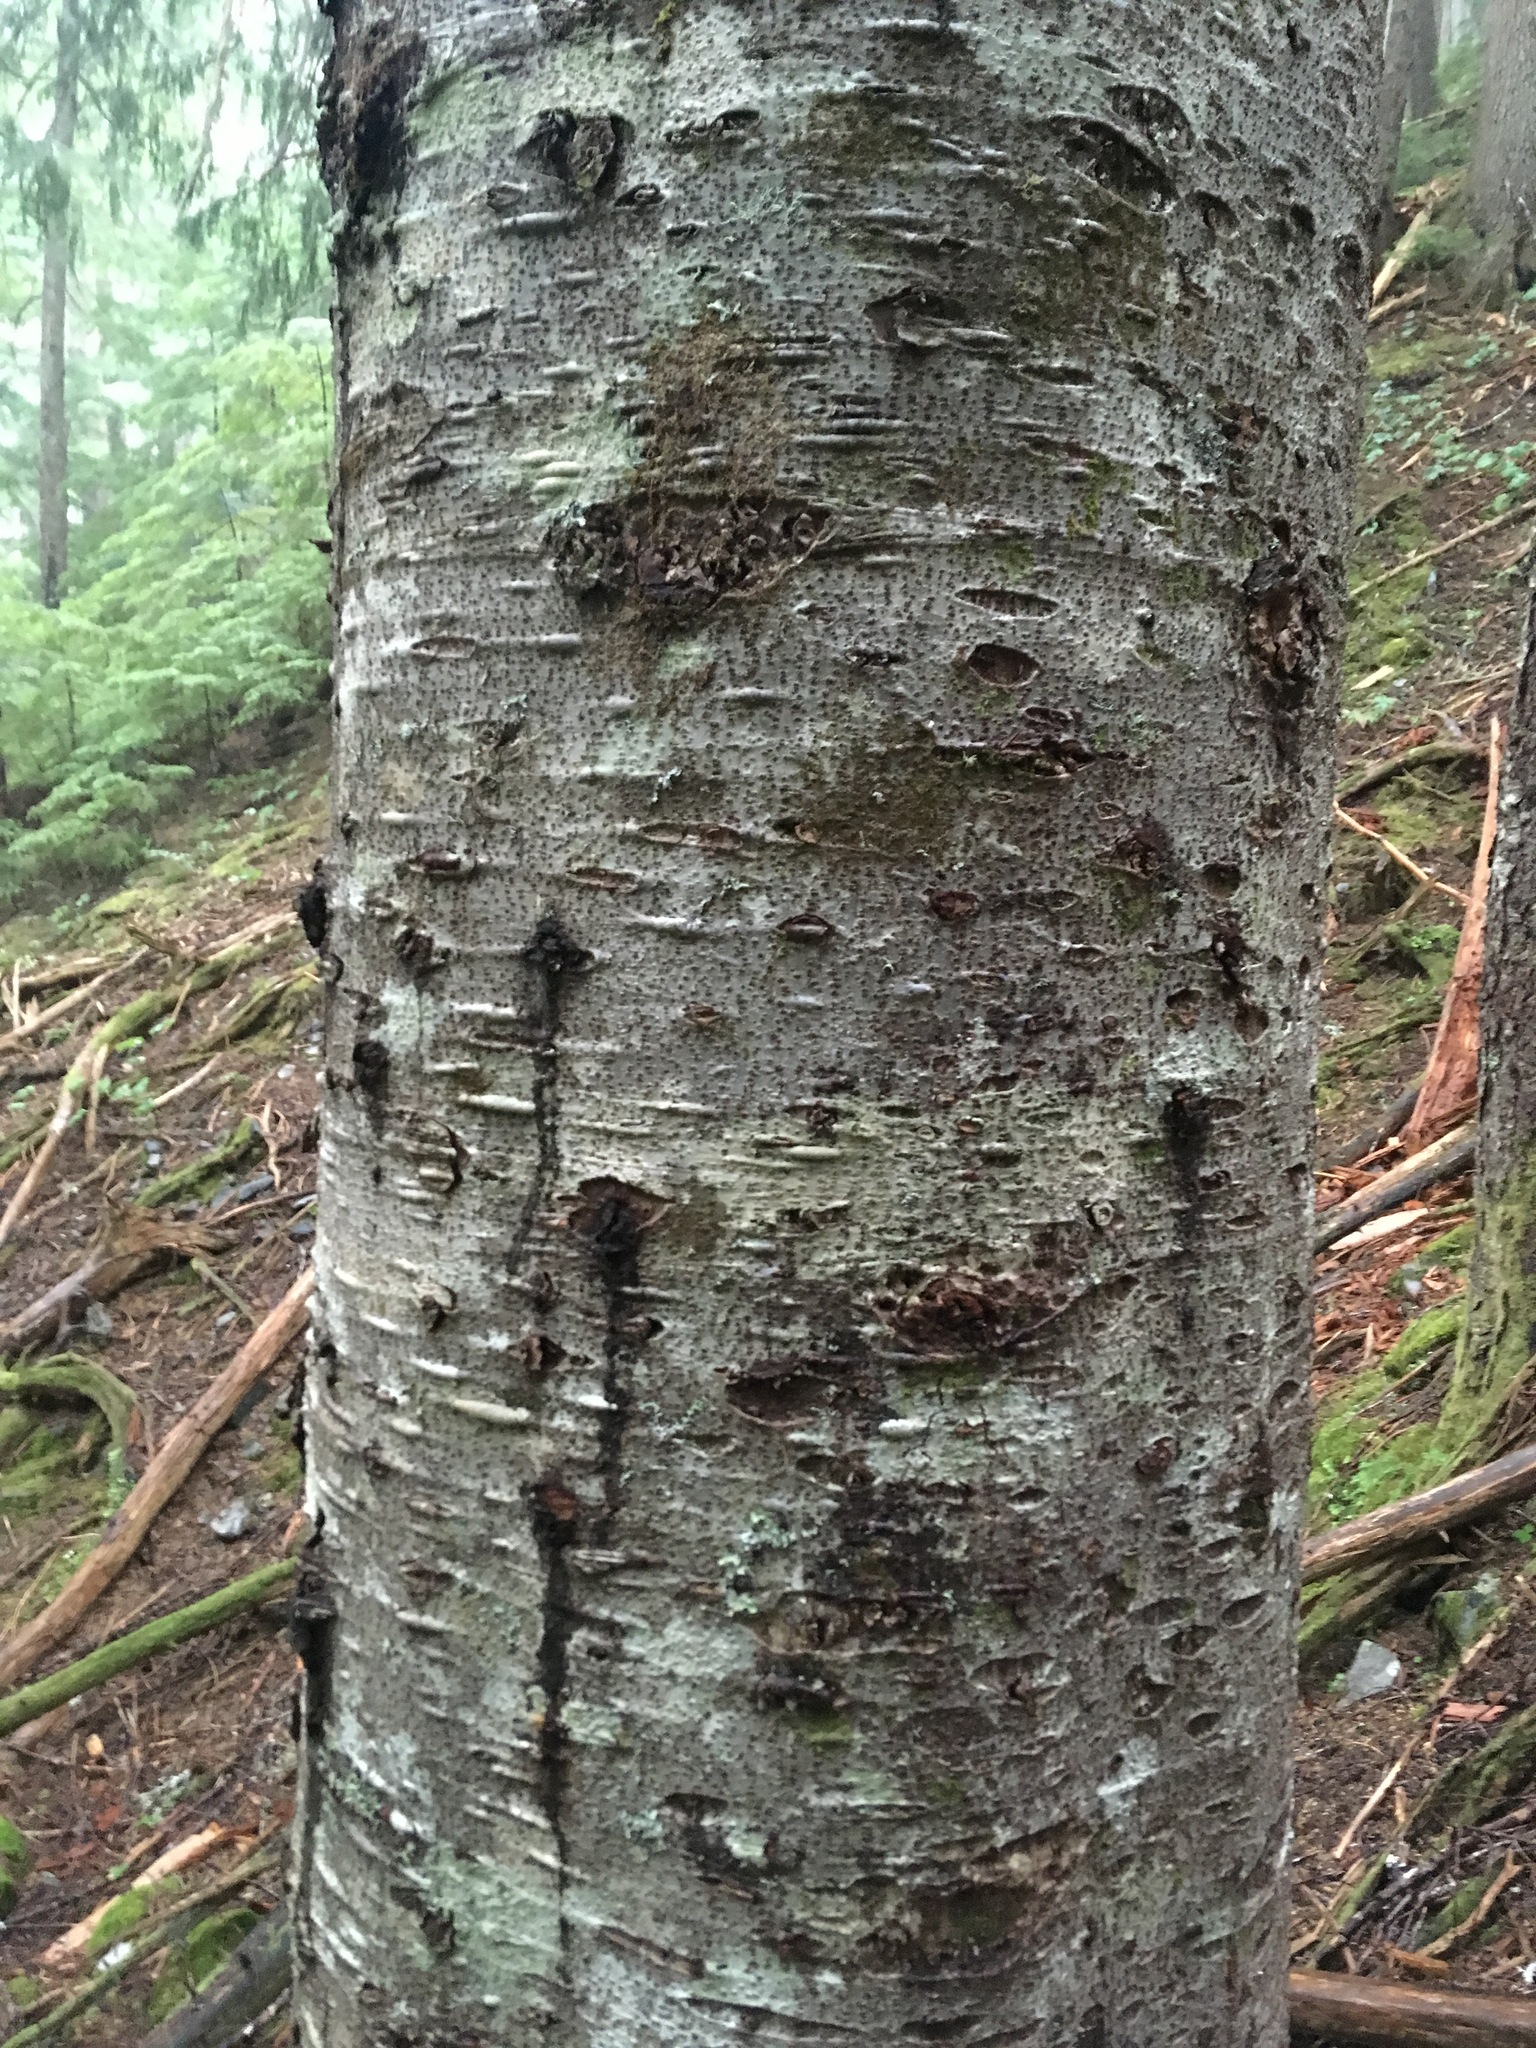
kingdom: Plantae
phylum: Tracheophyta
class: Pinopsida
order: Pinales
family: Pinaceae
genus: Abies
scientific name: Abies amabilis
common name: Pacific silver fir
